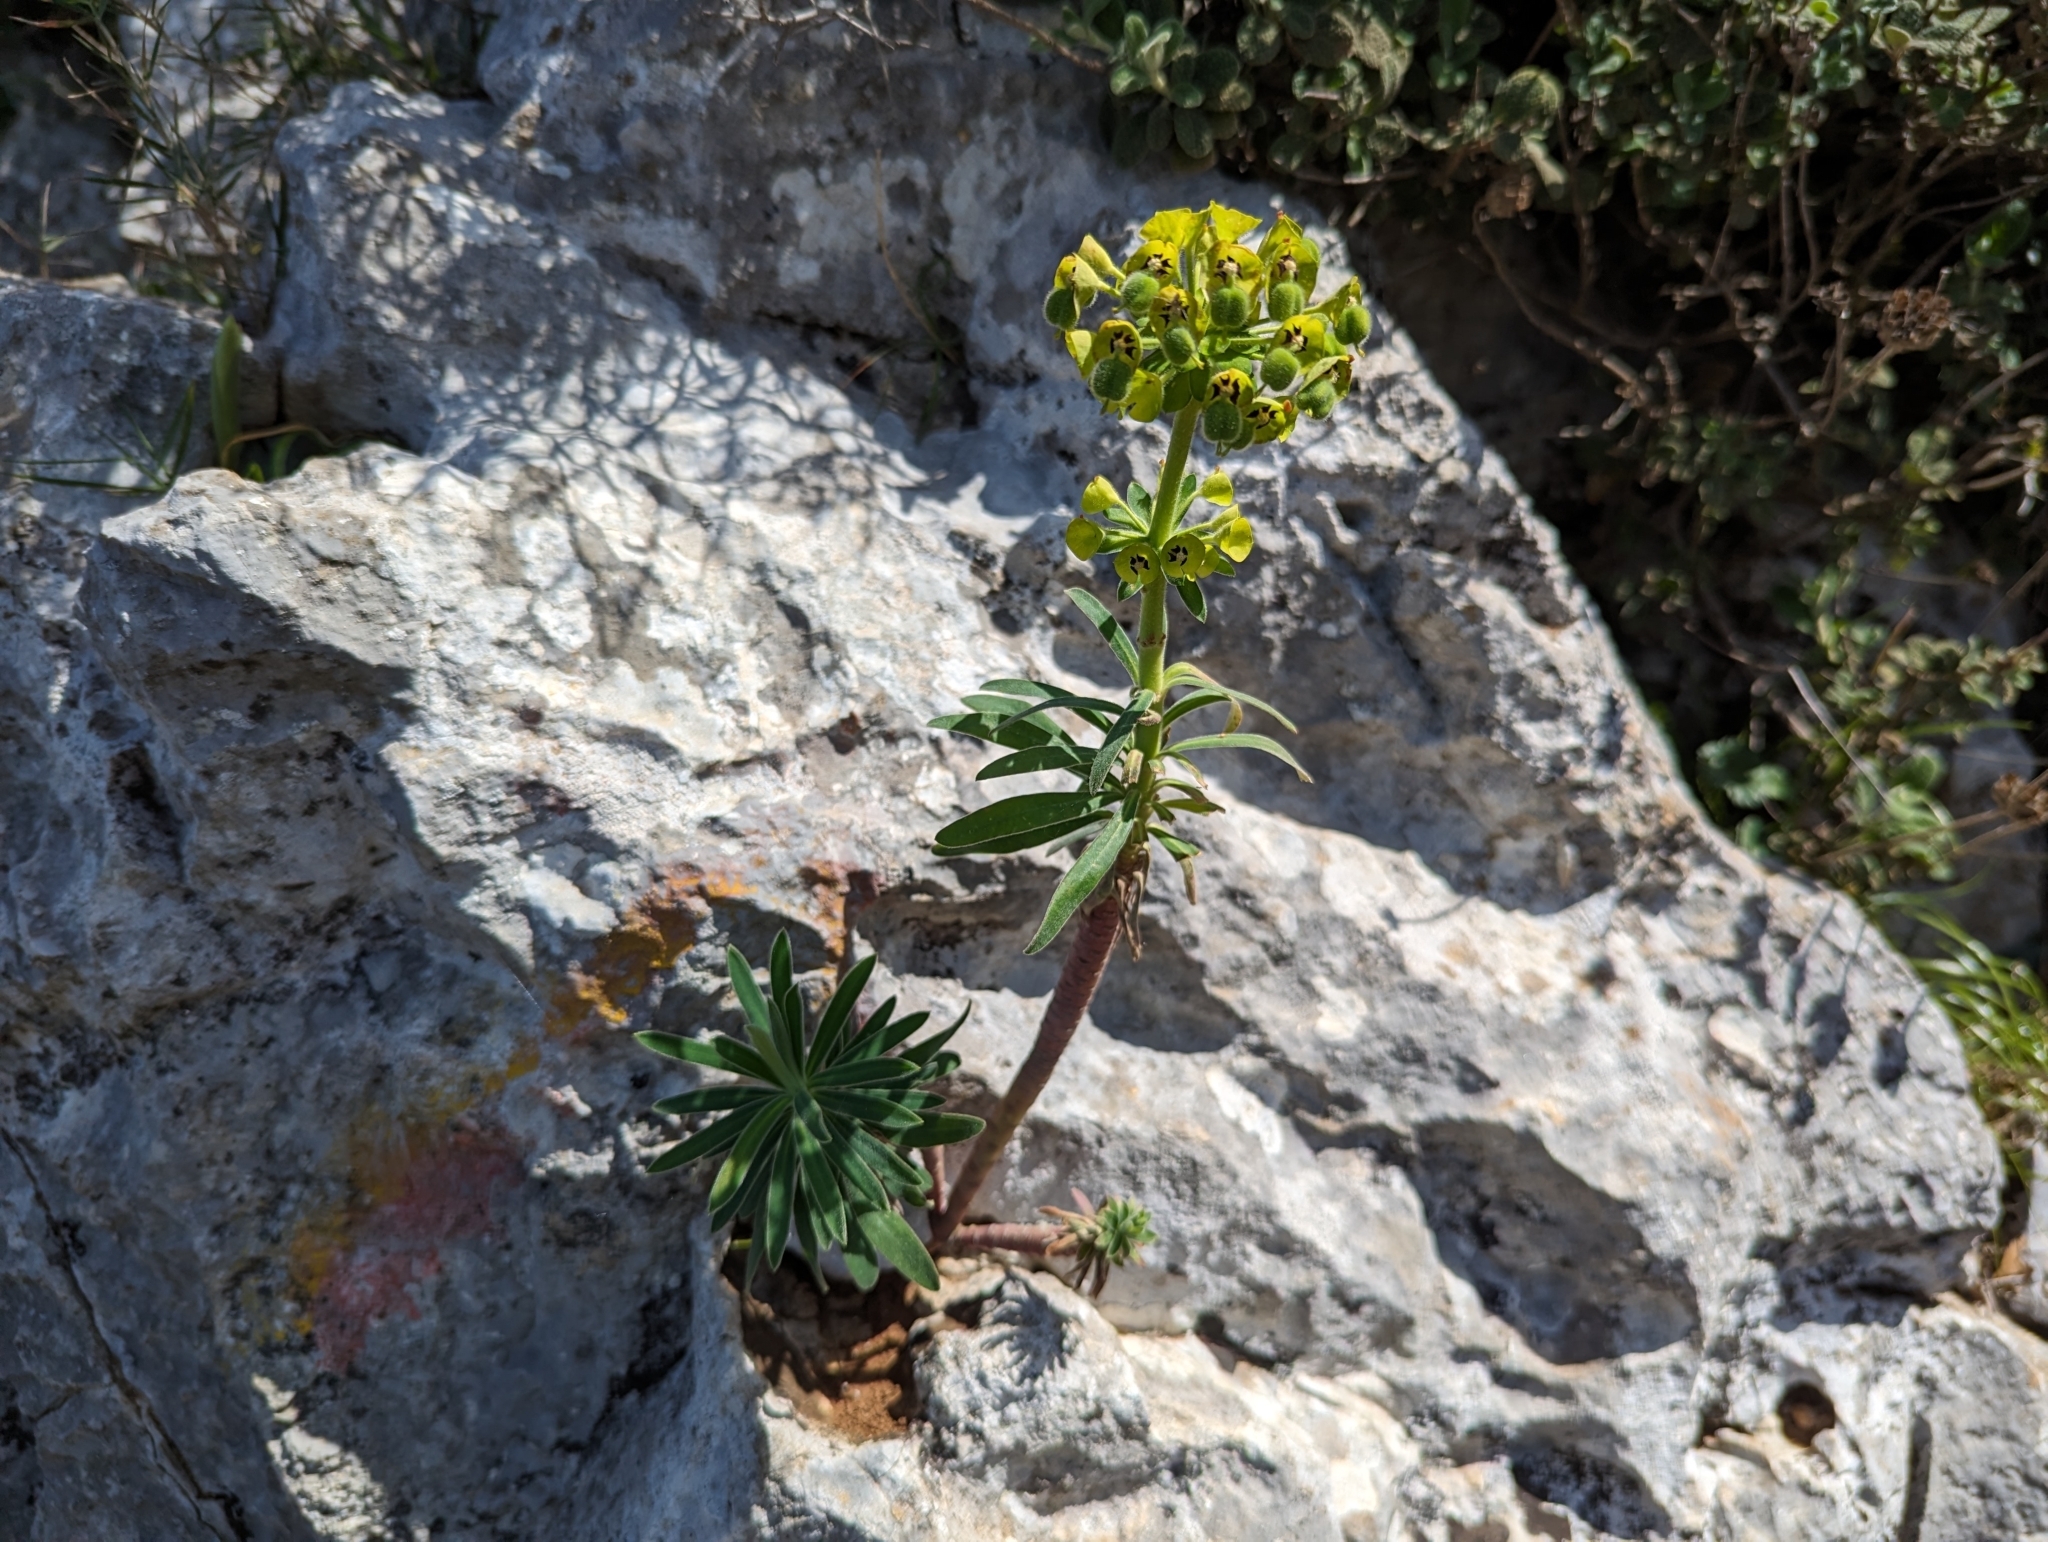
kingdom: Plantae
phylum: Tracheophyta
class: Magnoliopsida
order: Malpighiales
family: Euphorbiaceae
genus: Euphorbia
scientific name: Euphorbia characias
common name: Mediterranean spurge
